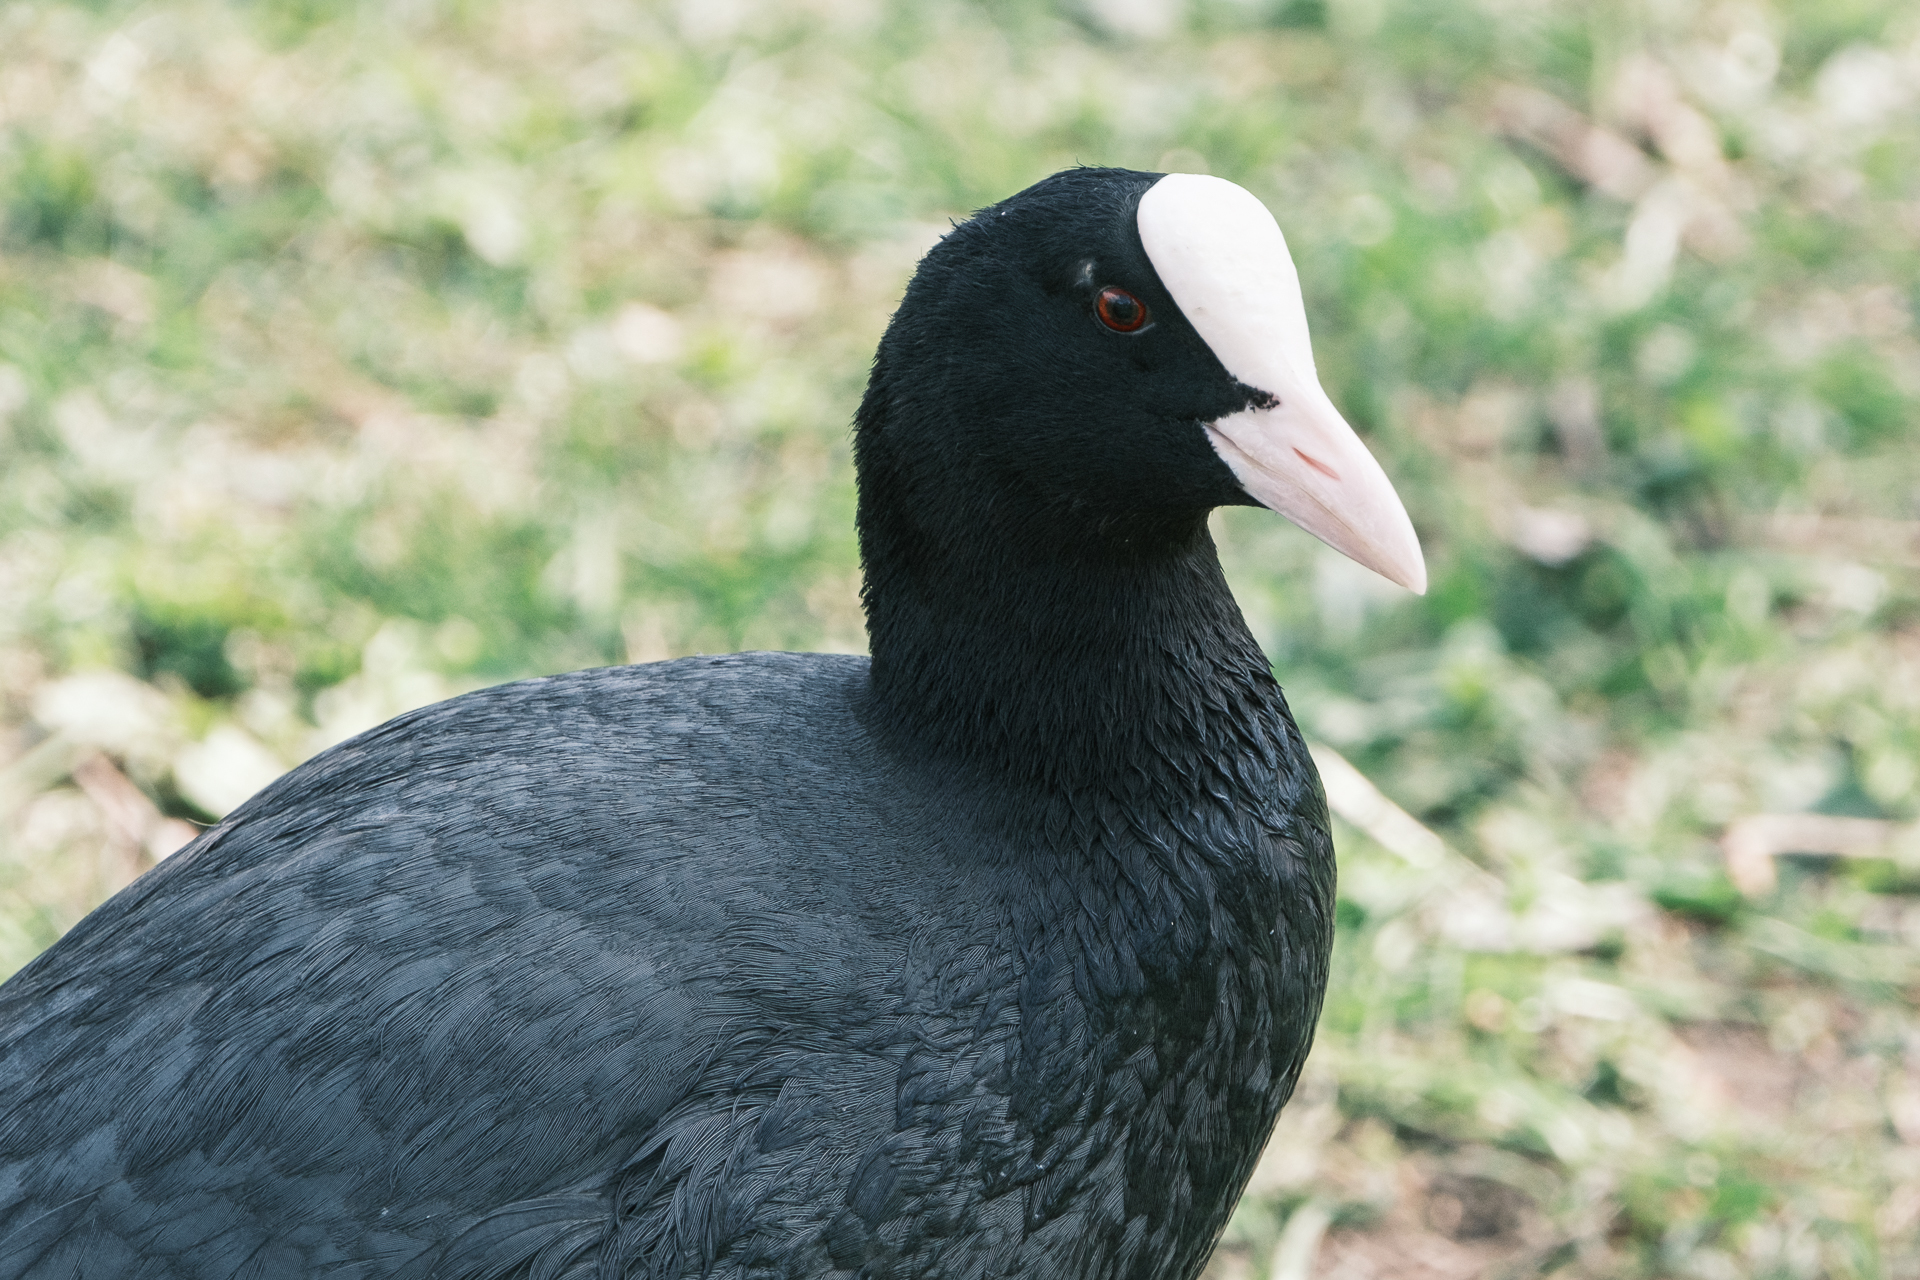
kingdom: Animalia
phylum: Chordata
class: Aves
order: Gruiformes
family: Rallidae
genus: Fulica
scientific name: Fulica atra
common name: Eurasian coot
